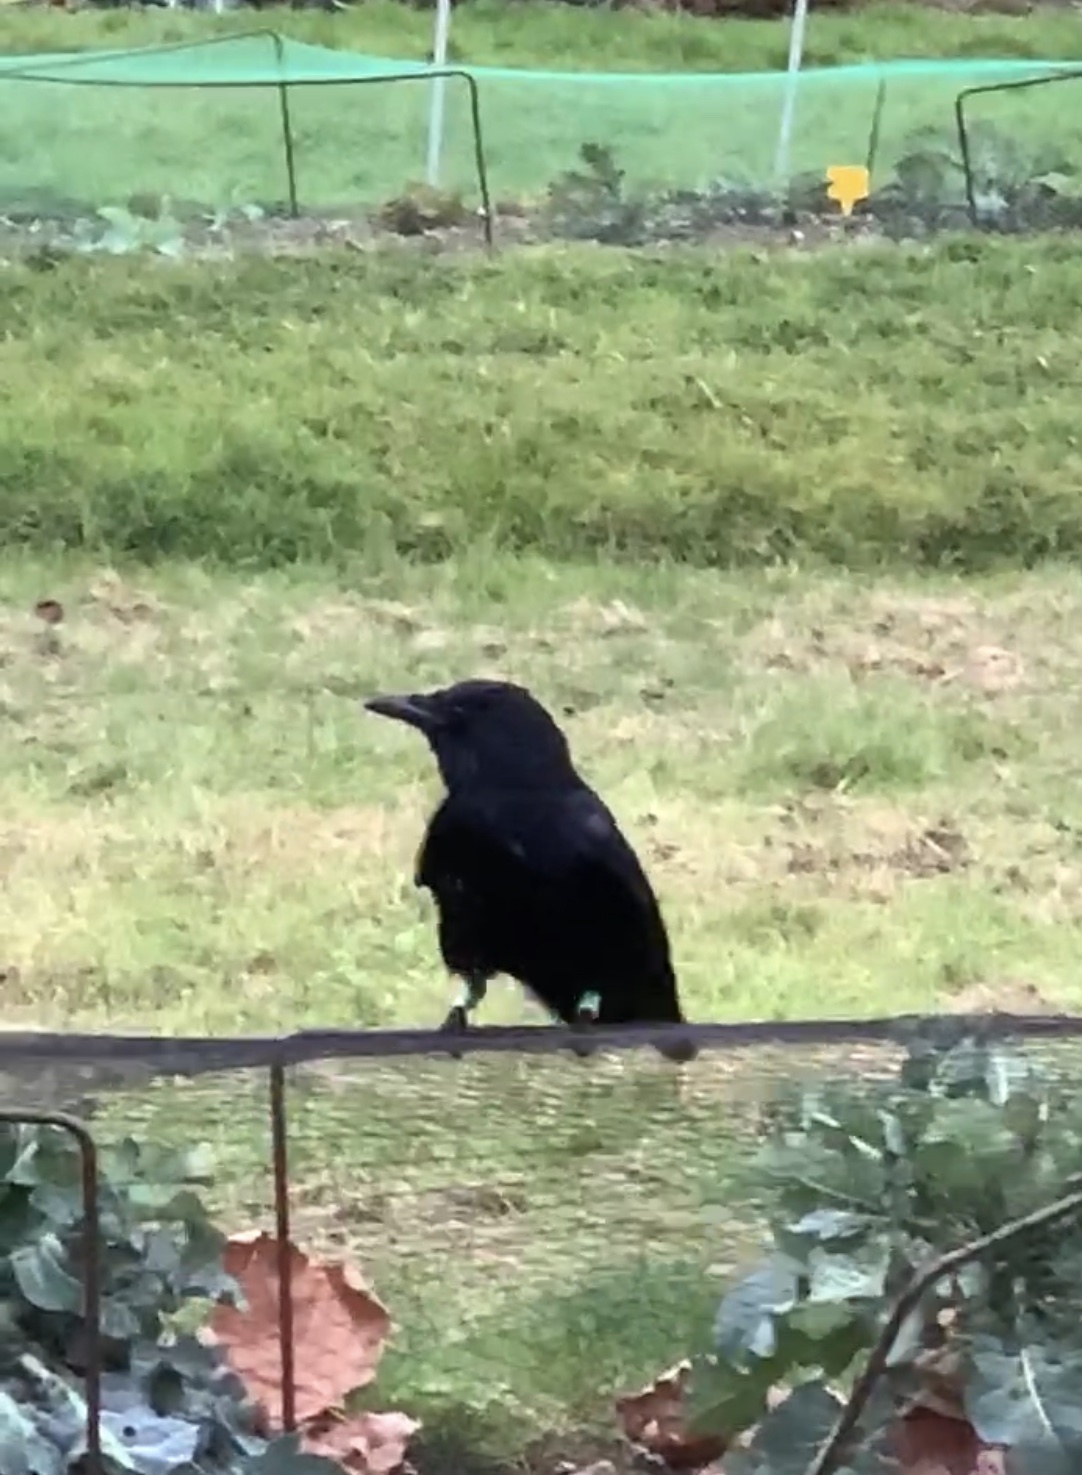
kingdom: Animalia
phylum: Chordata
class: Aves
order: Passeriformes
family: Corvidae
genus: Corvus
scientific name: Corvus corone
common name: Carrion crow
